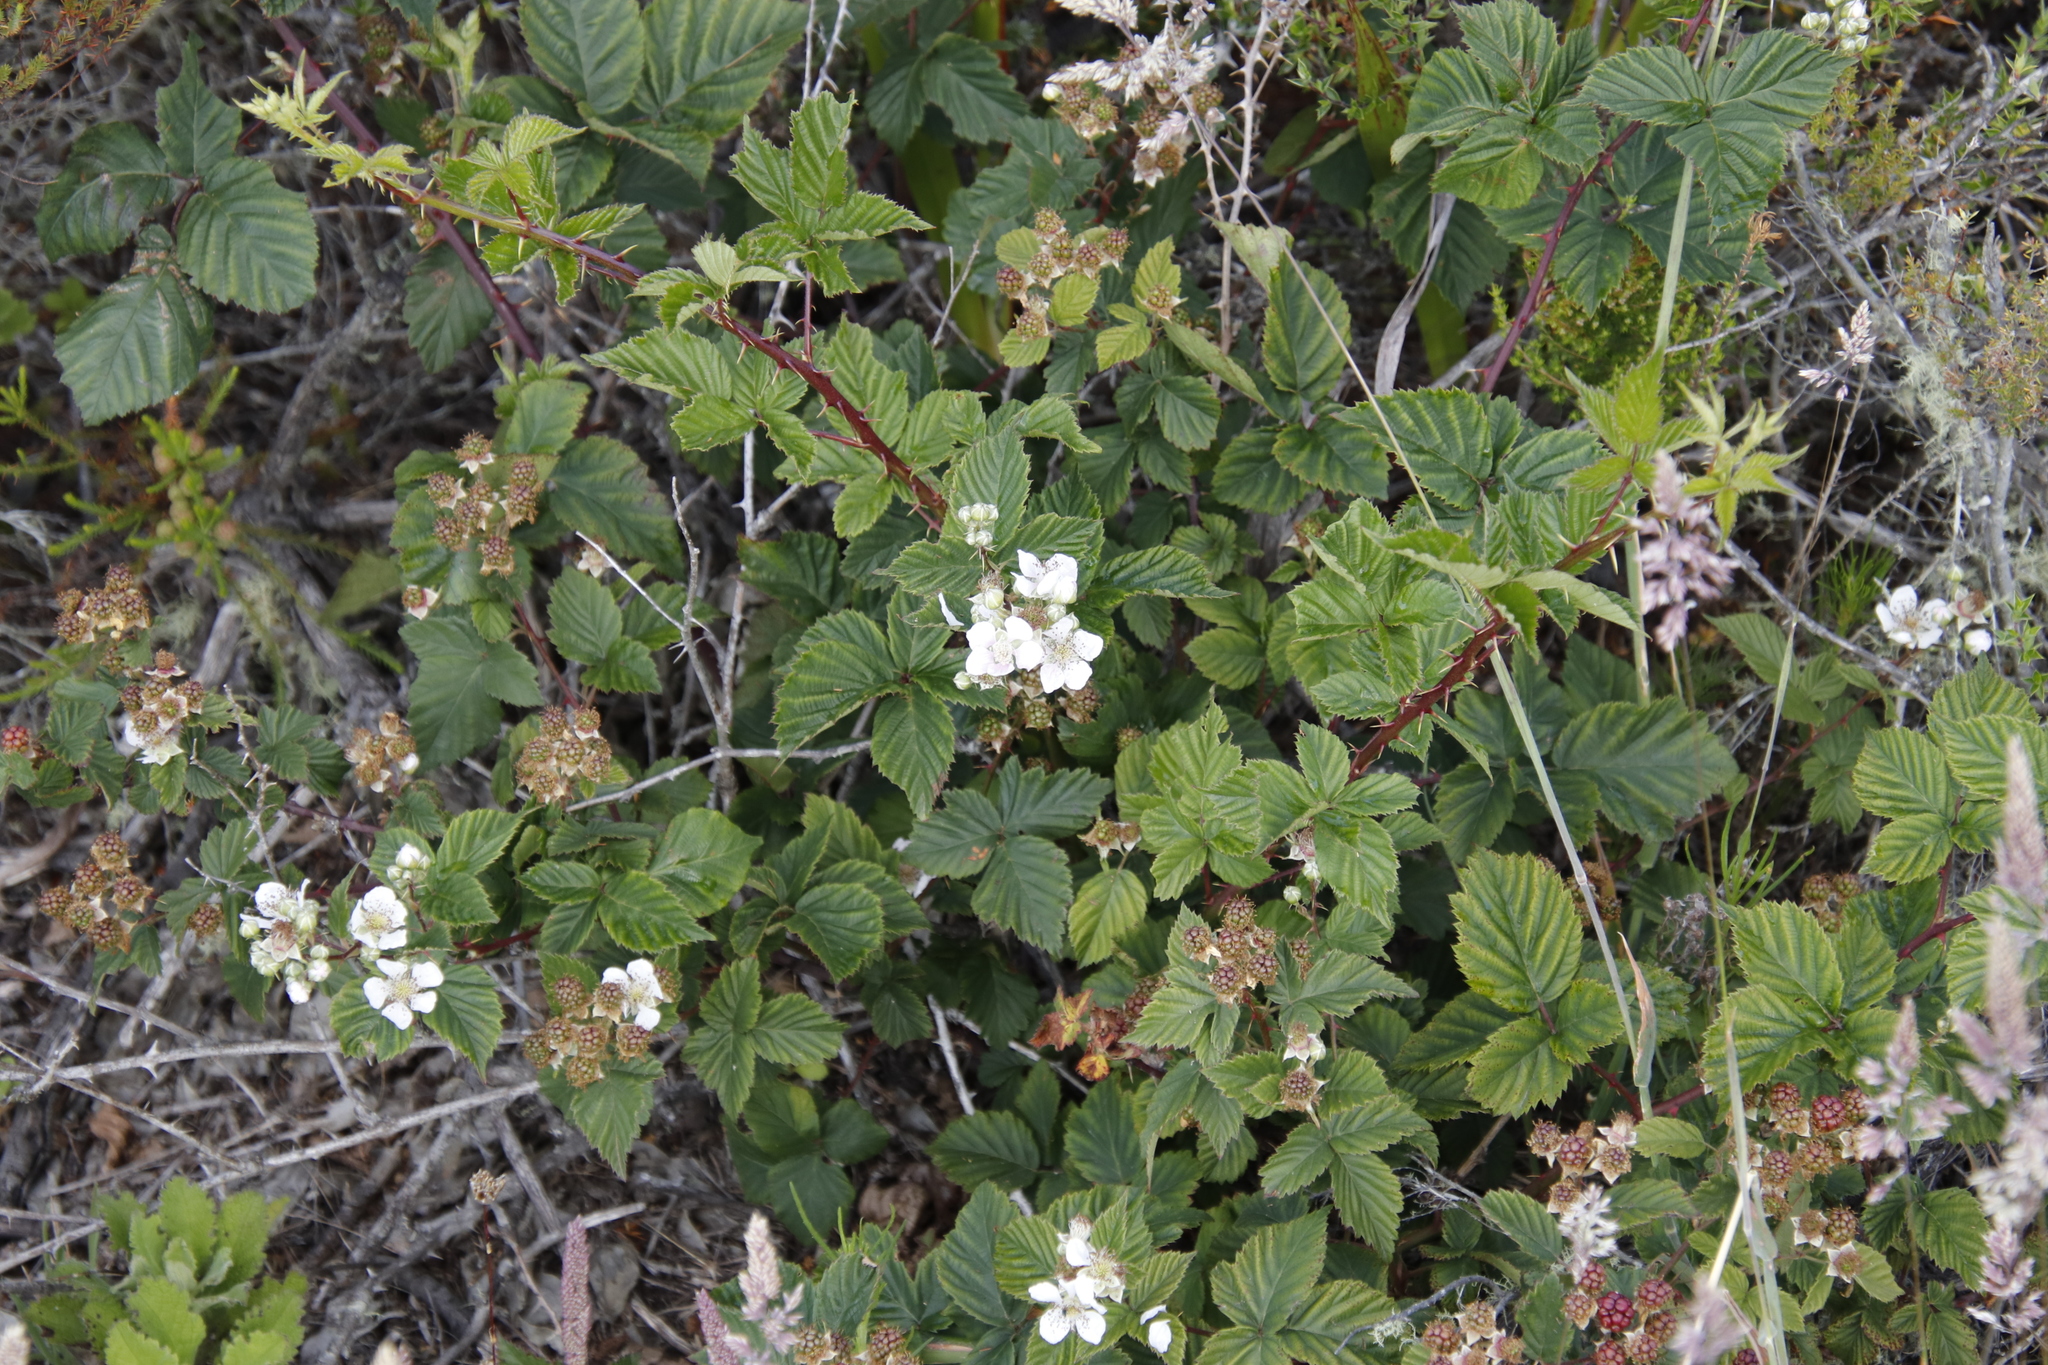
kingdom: Plantae
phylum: Tracheophyta
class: Magnoliopsida
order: Rosales
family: Rosaceae
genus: Rubus
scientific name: Rubus affinis
